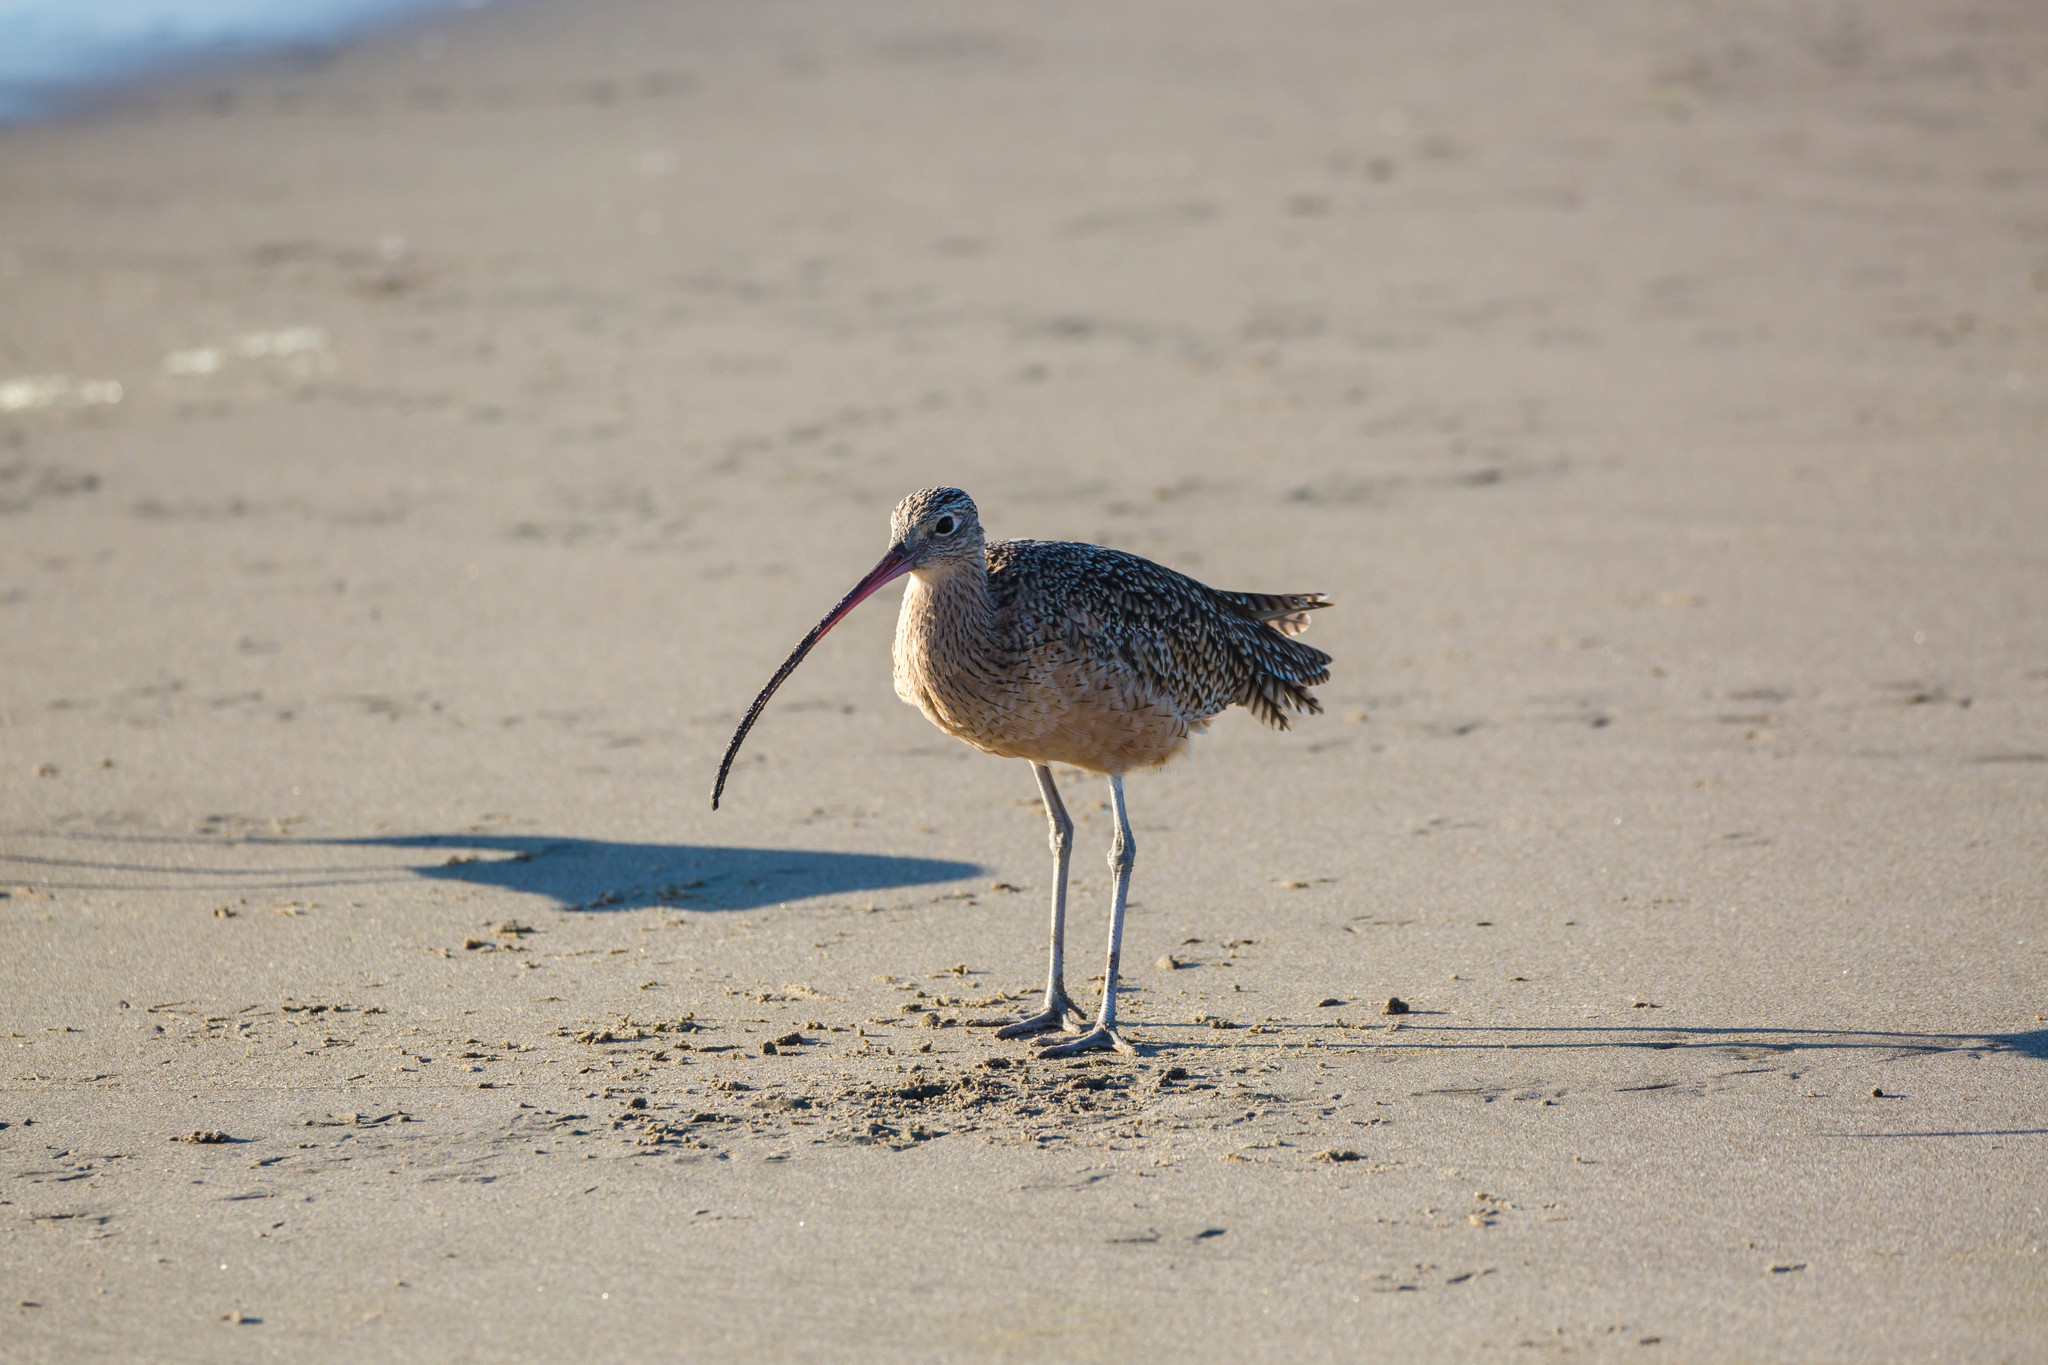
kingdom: Animalia
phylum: Chordata
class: Aves
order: Charadriiformes
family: Scolopacidae
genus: Numenius
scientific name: Numenius americanus
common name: Long-billed curlew
